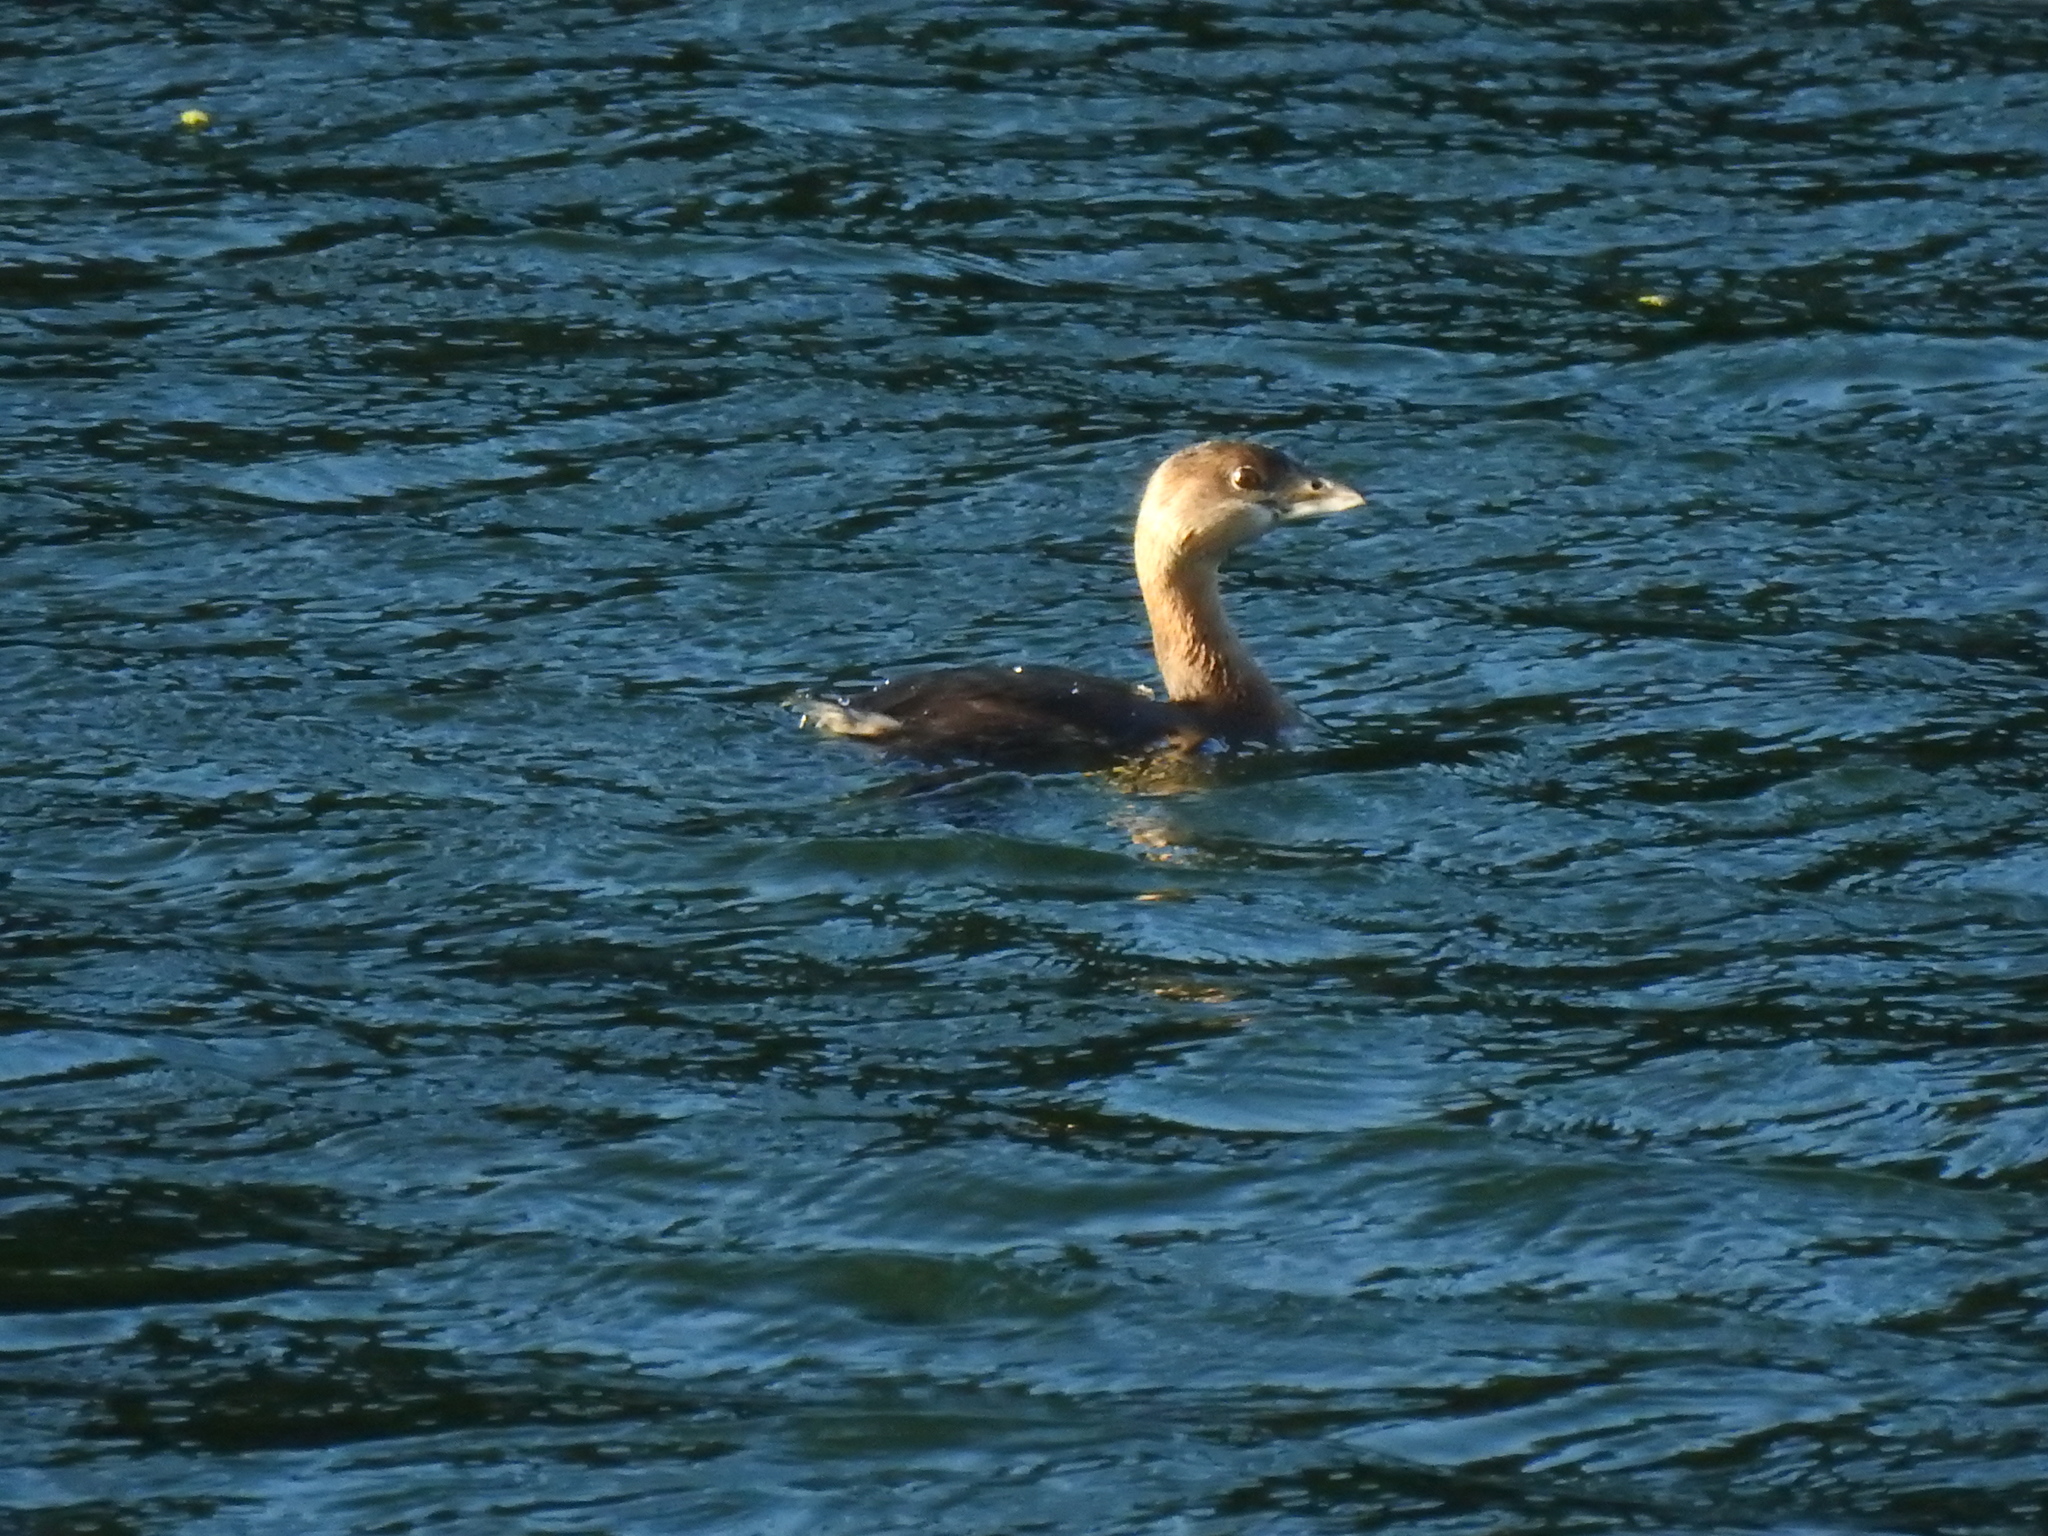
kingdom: Animalia
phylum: Chordata
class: Aves
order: Podicipediformes
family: Podicipedidae
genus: Podilymbus
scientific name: Podilymbus podiceps
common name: Pied-billed grebe
